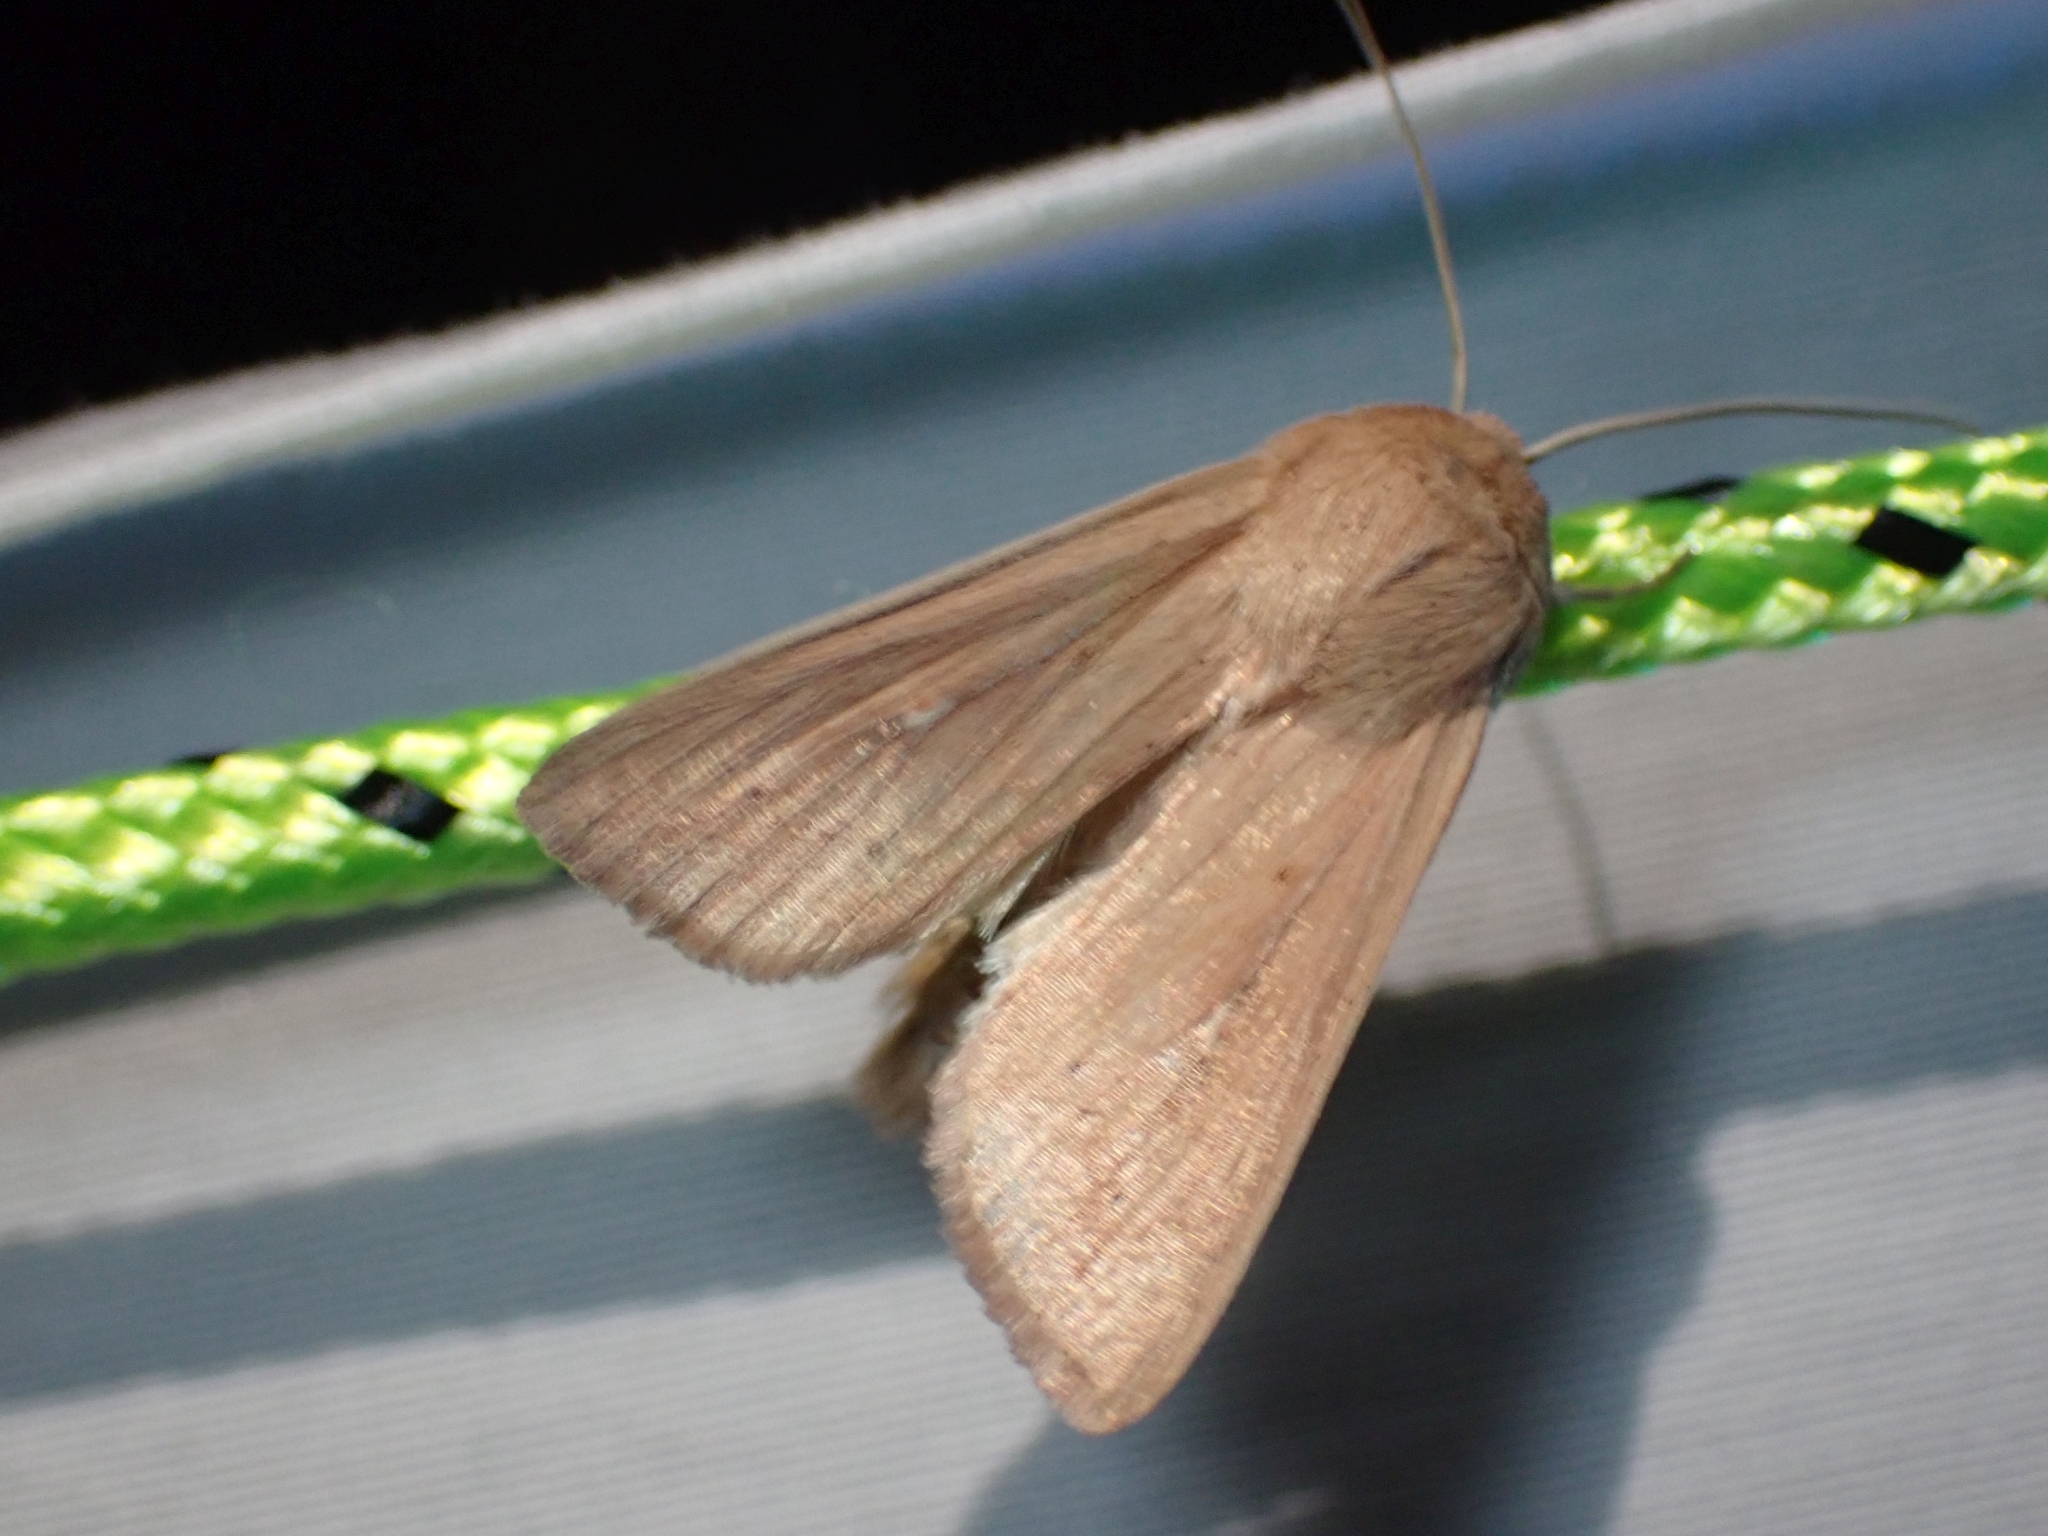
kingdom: Animalia
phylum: Arthropoda
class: Insecta
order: Lepidoptera
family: Noctuidae
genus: Leucania
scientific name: Leucania farcta
